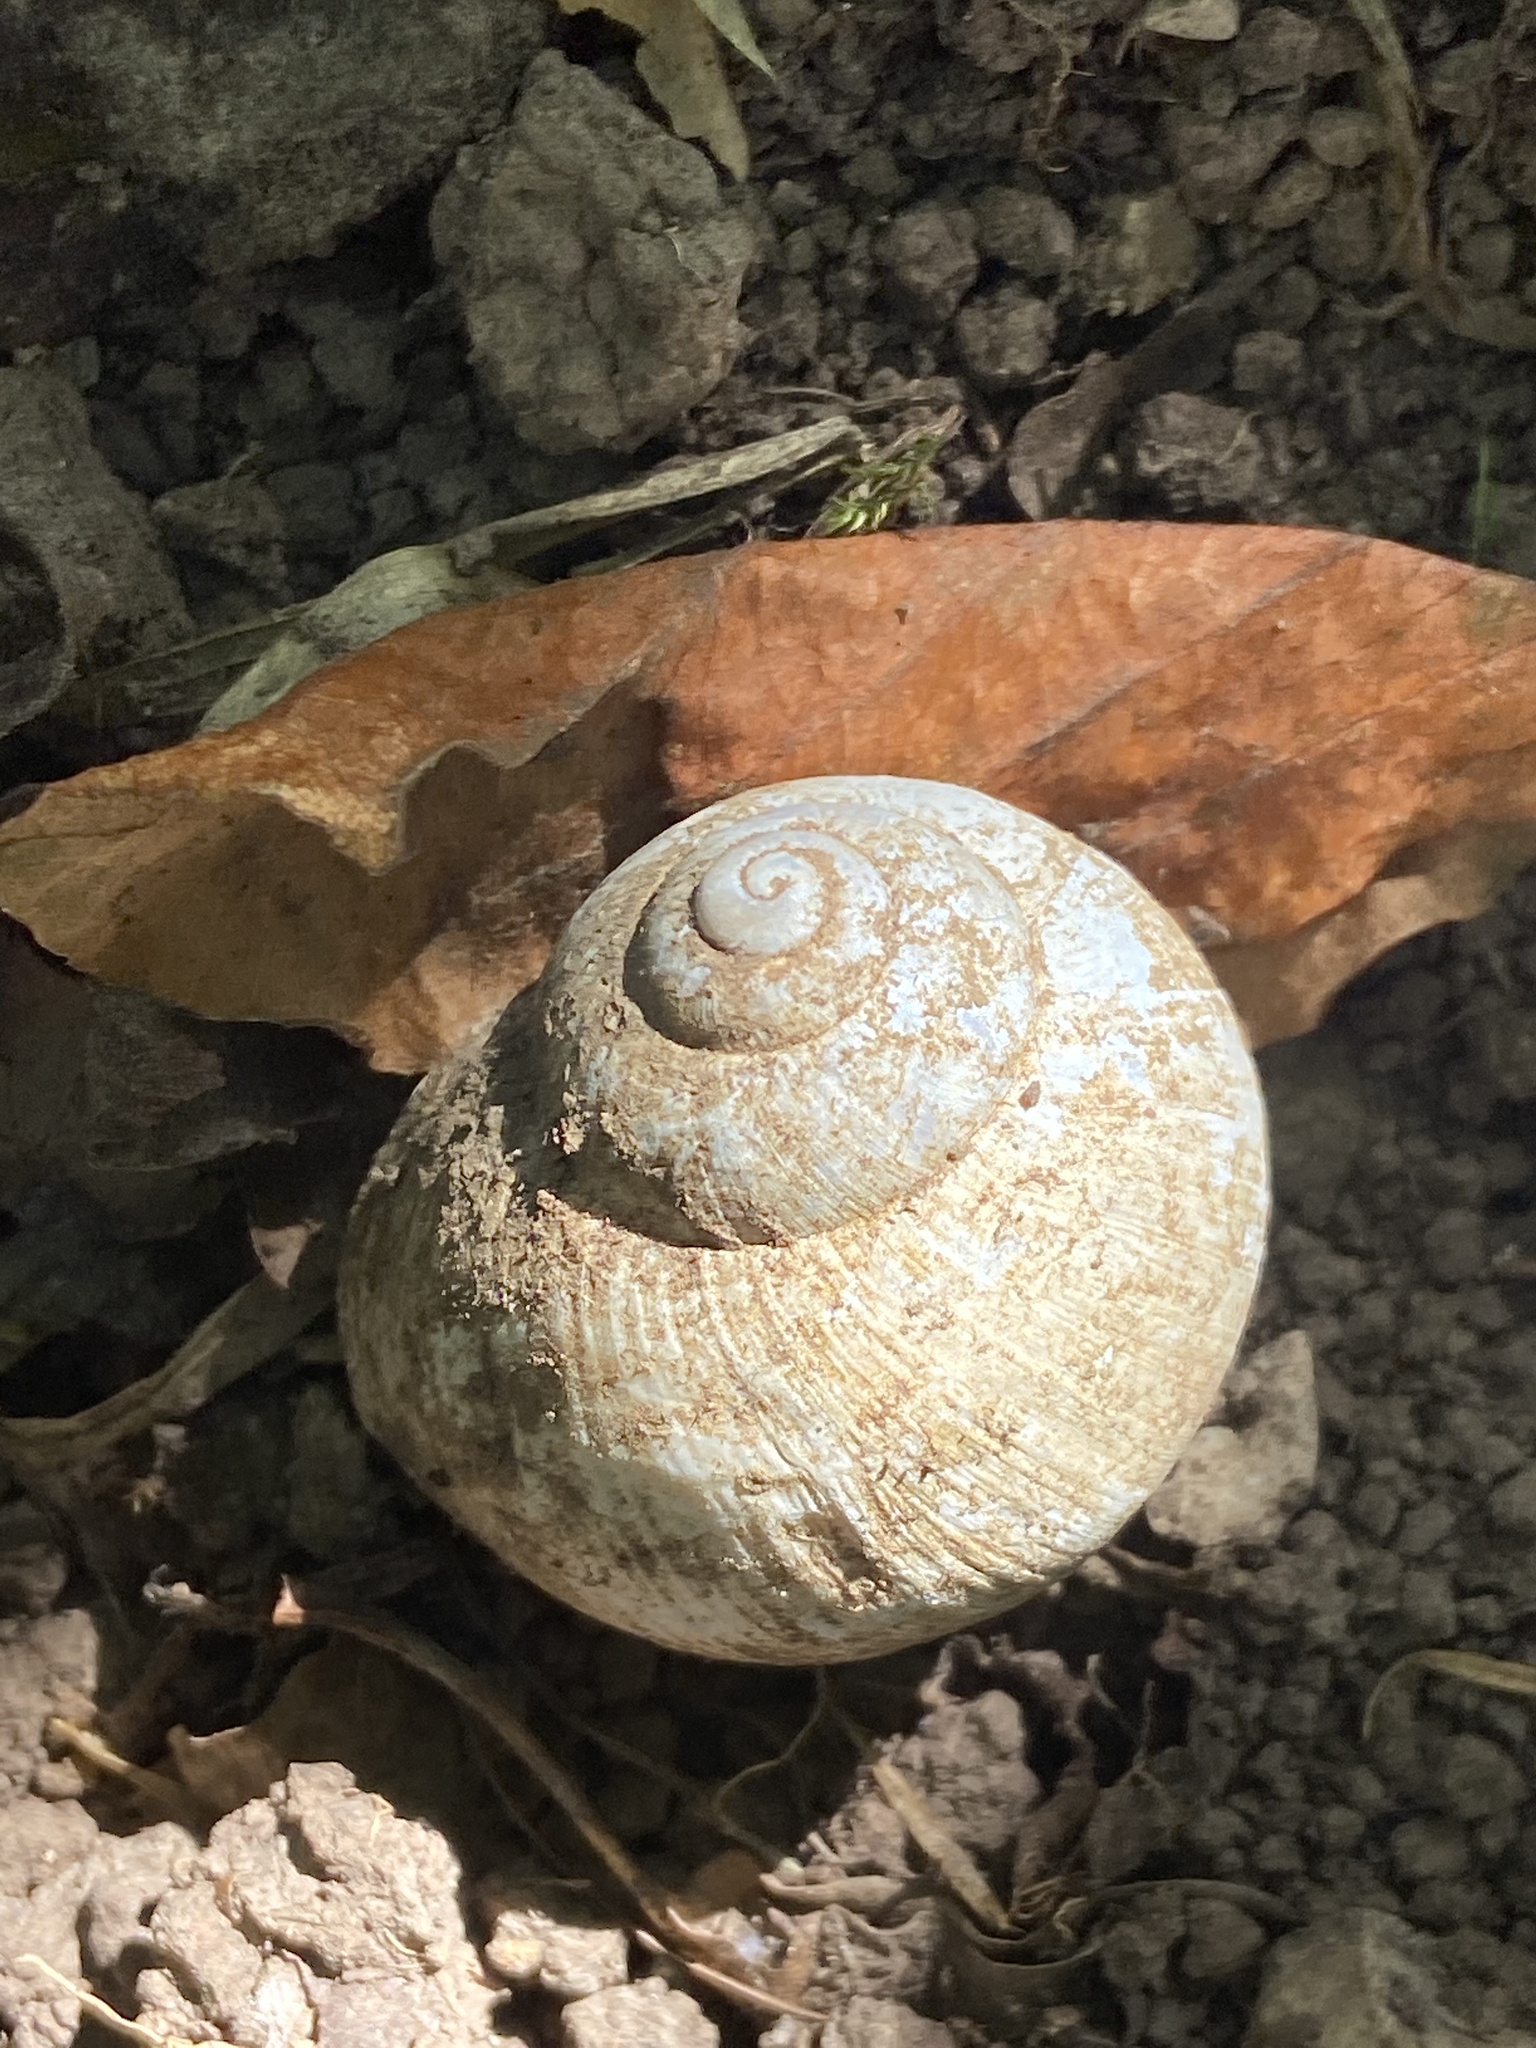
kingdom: Animalia
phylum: Mollusca
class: Gastropoda
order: Stylommatophora
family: Helicidae
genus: Helix
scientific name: Helix pomatia
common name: Roman snail
